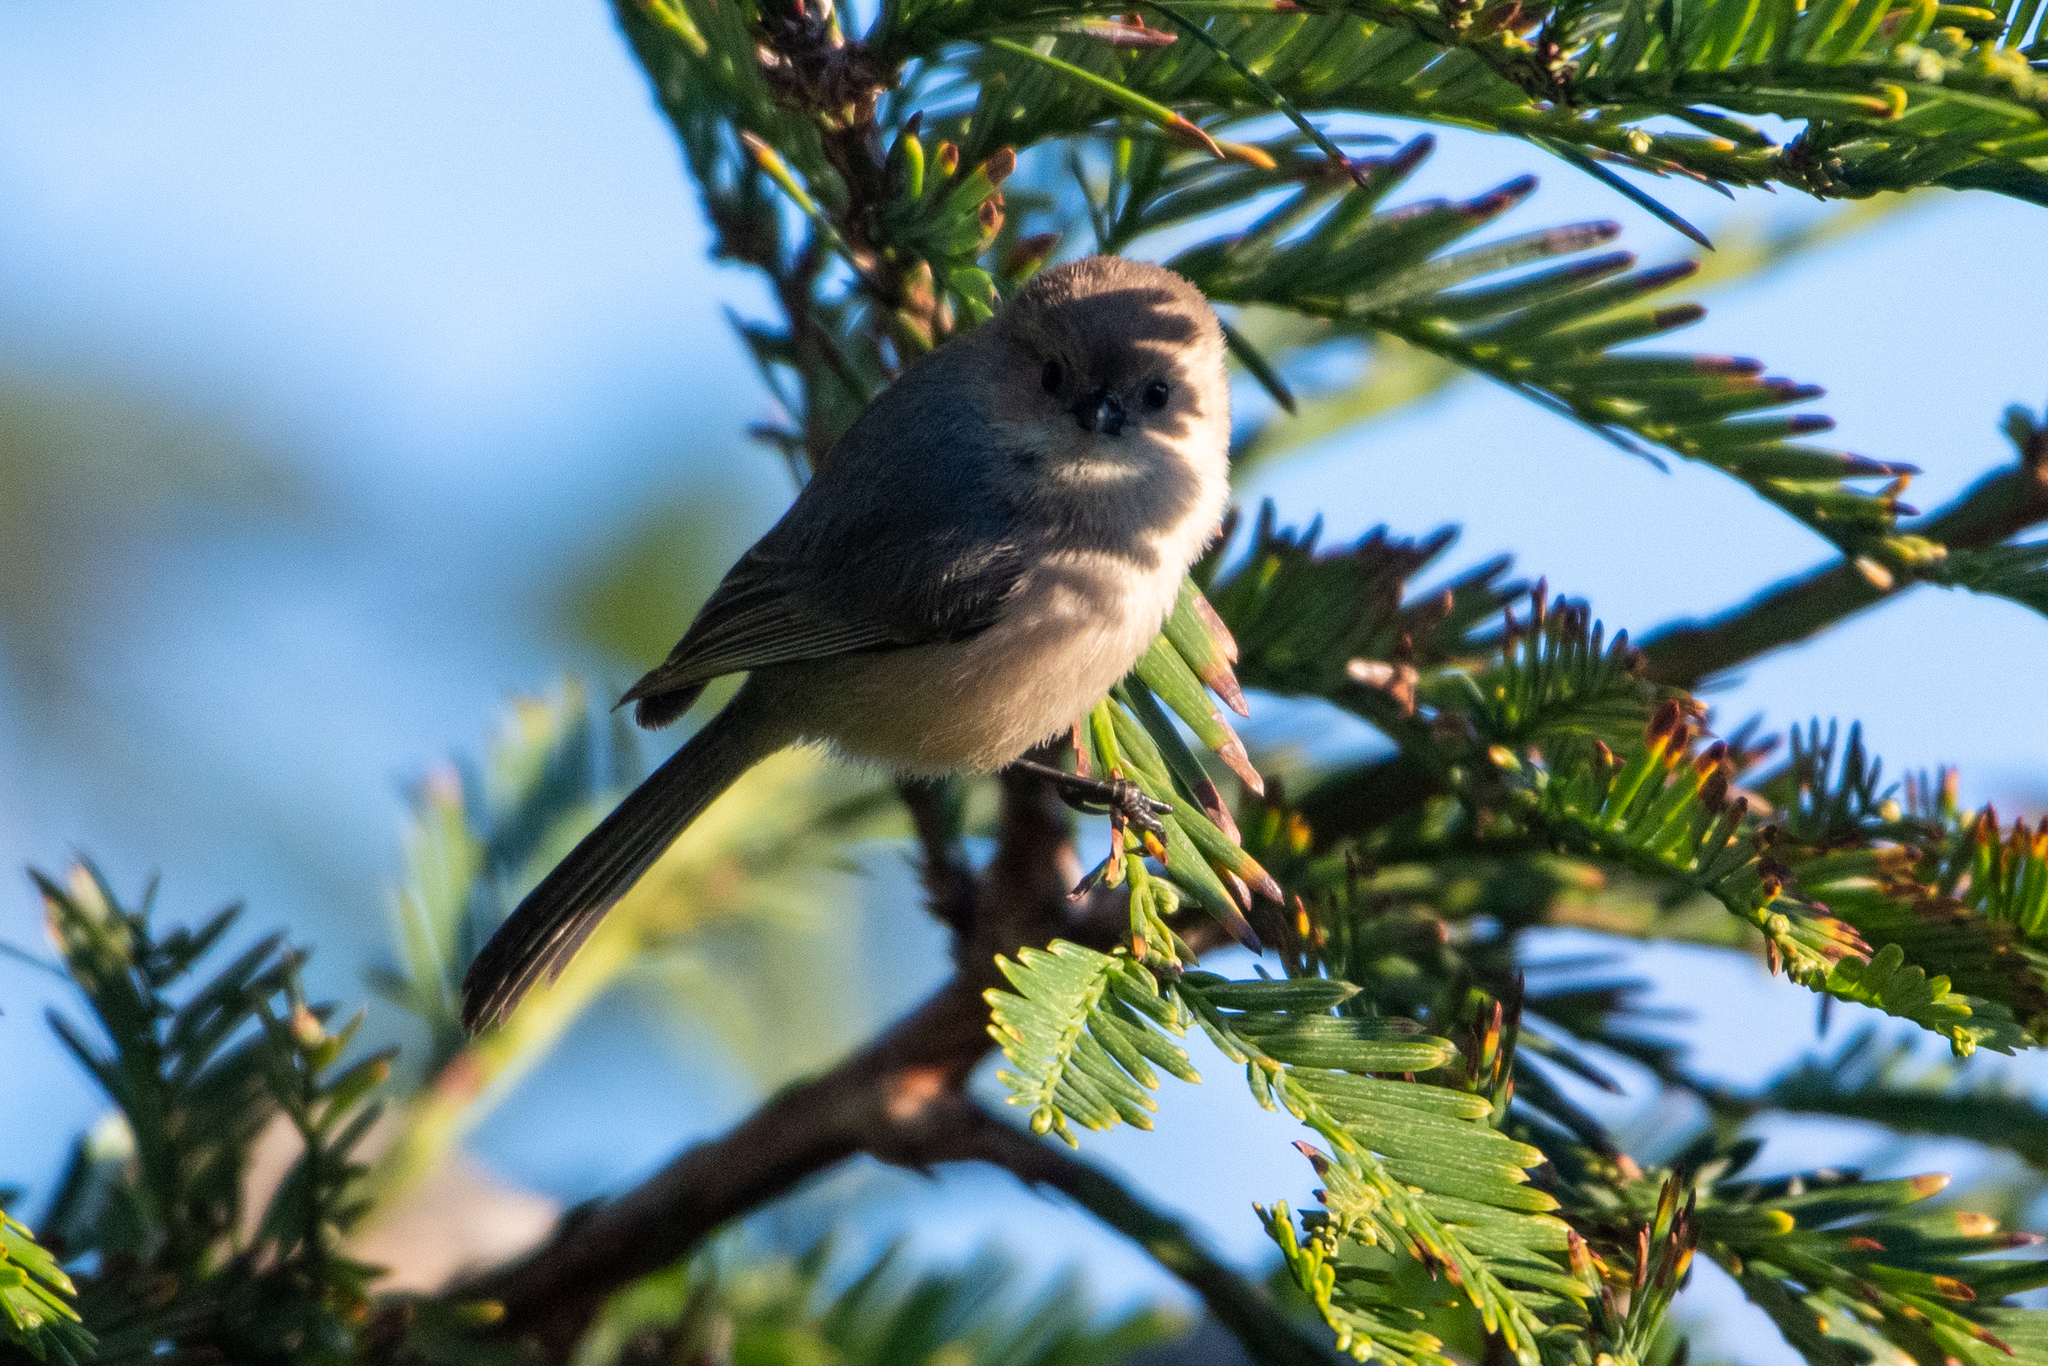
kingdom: Animalia
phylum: Chordata
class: Aves
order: Passeriformes
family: Aegithalidae
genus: Psaltriparus
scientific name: Psaltriparus minimus
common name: American bushtit
